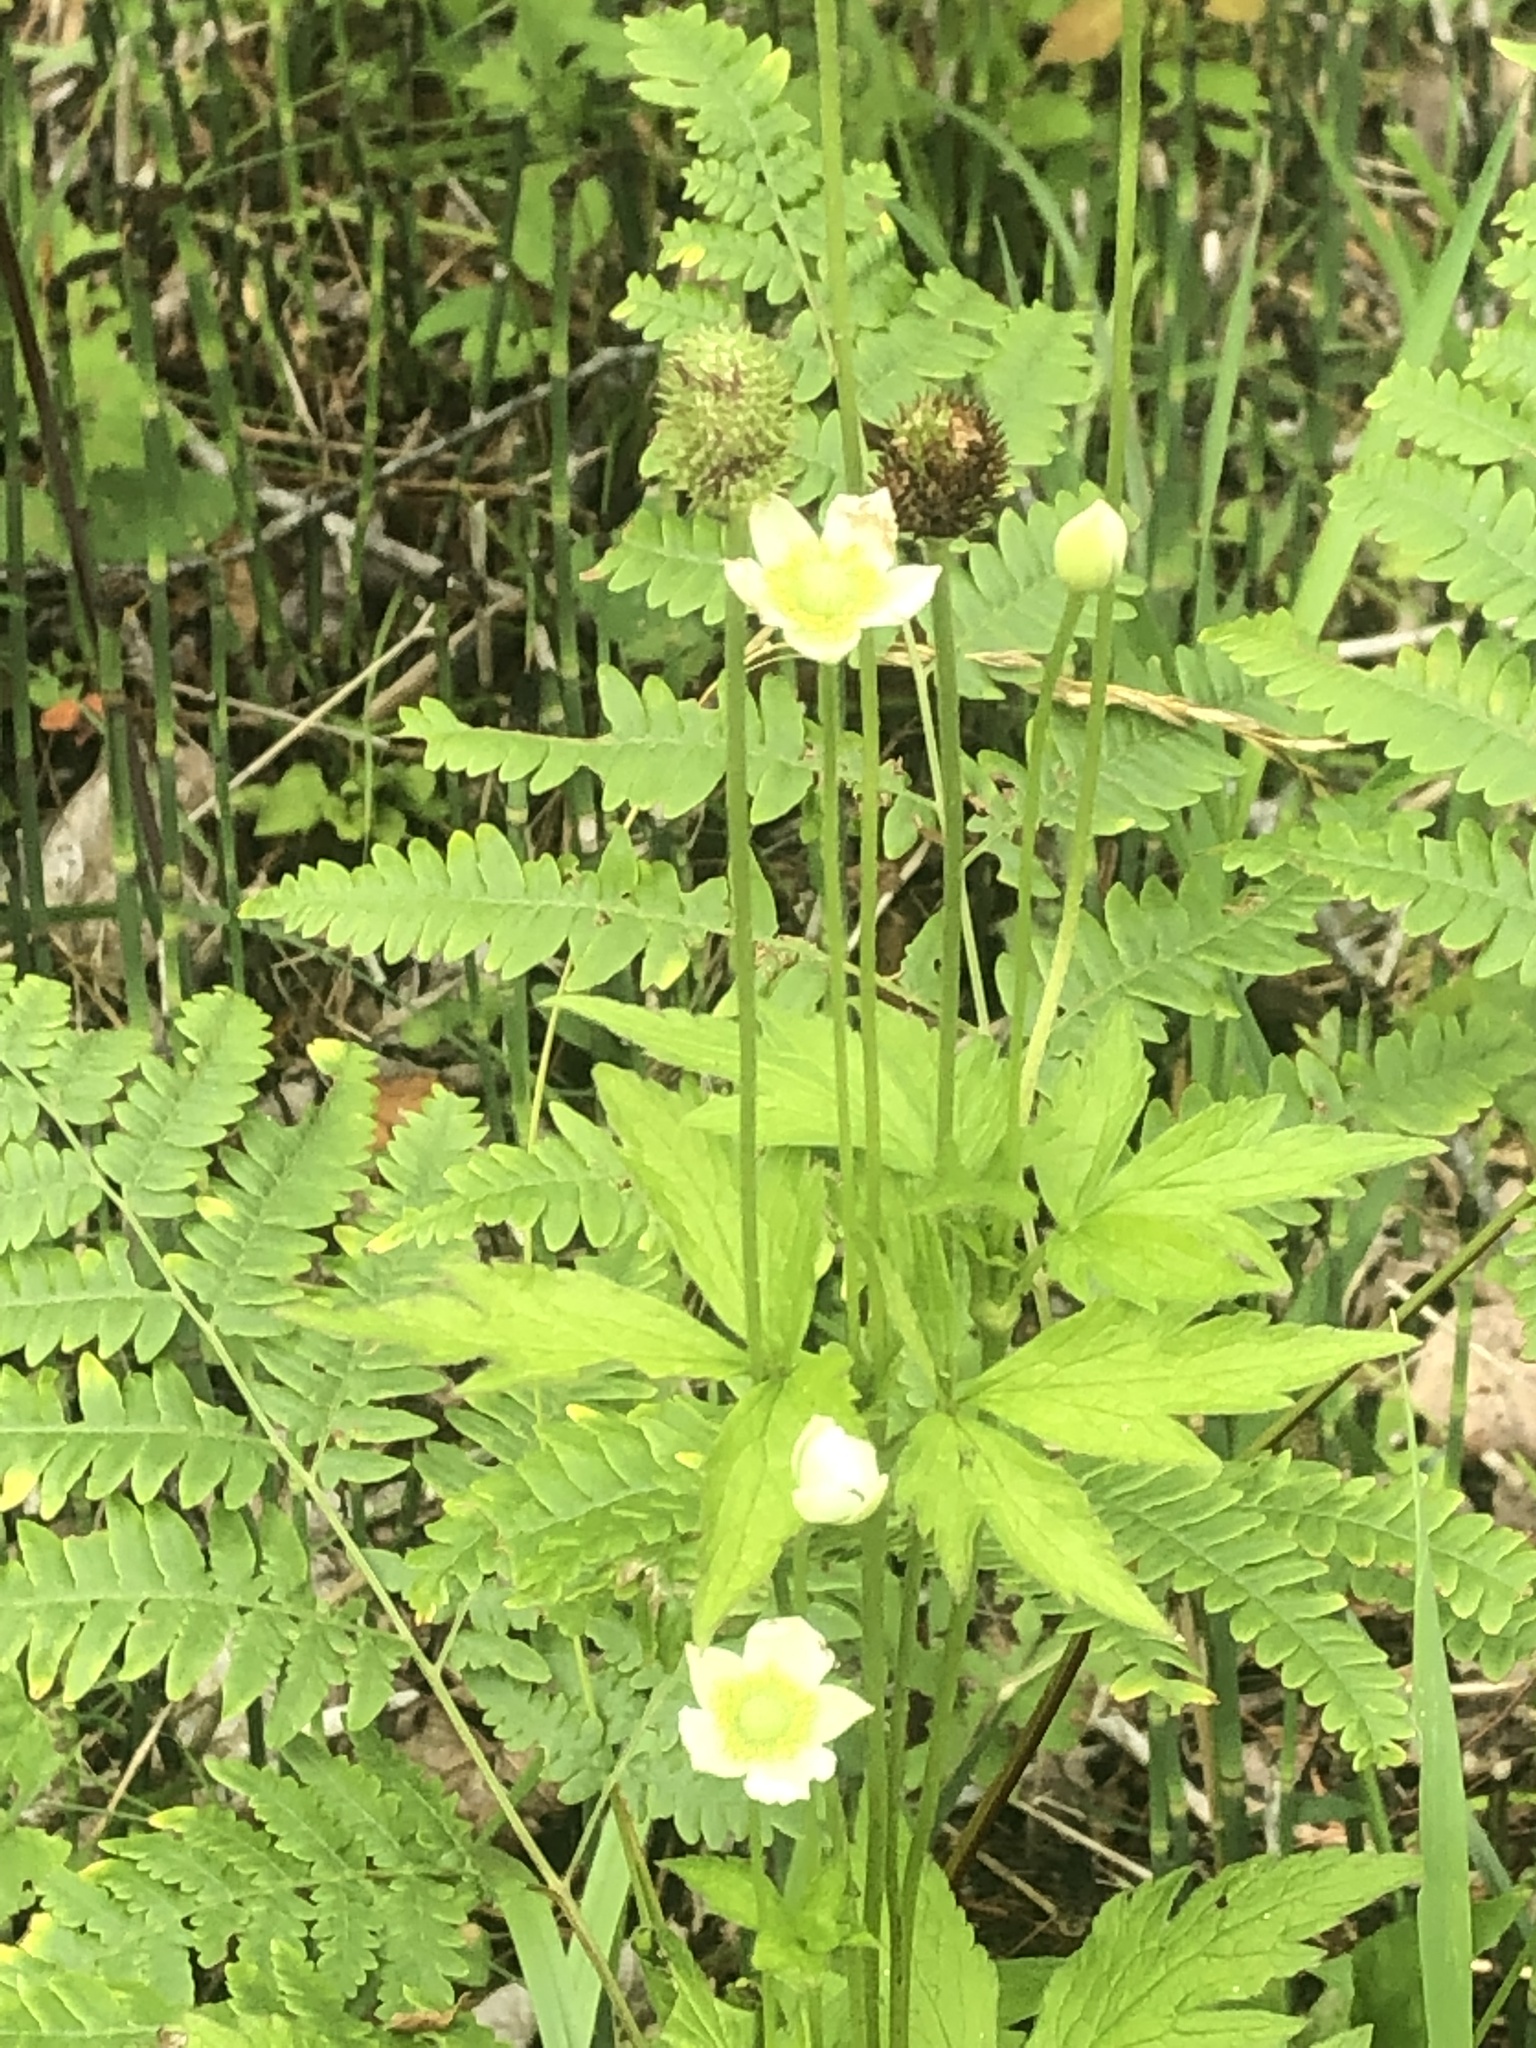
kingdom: Plantae
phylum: Tracheophyta
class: Magnoliopsida
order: Ranunculales
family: Ranunculaceae
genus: Anemone
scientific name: Anemone virginiana
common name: Tall anemone
